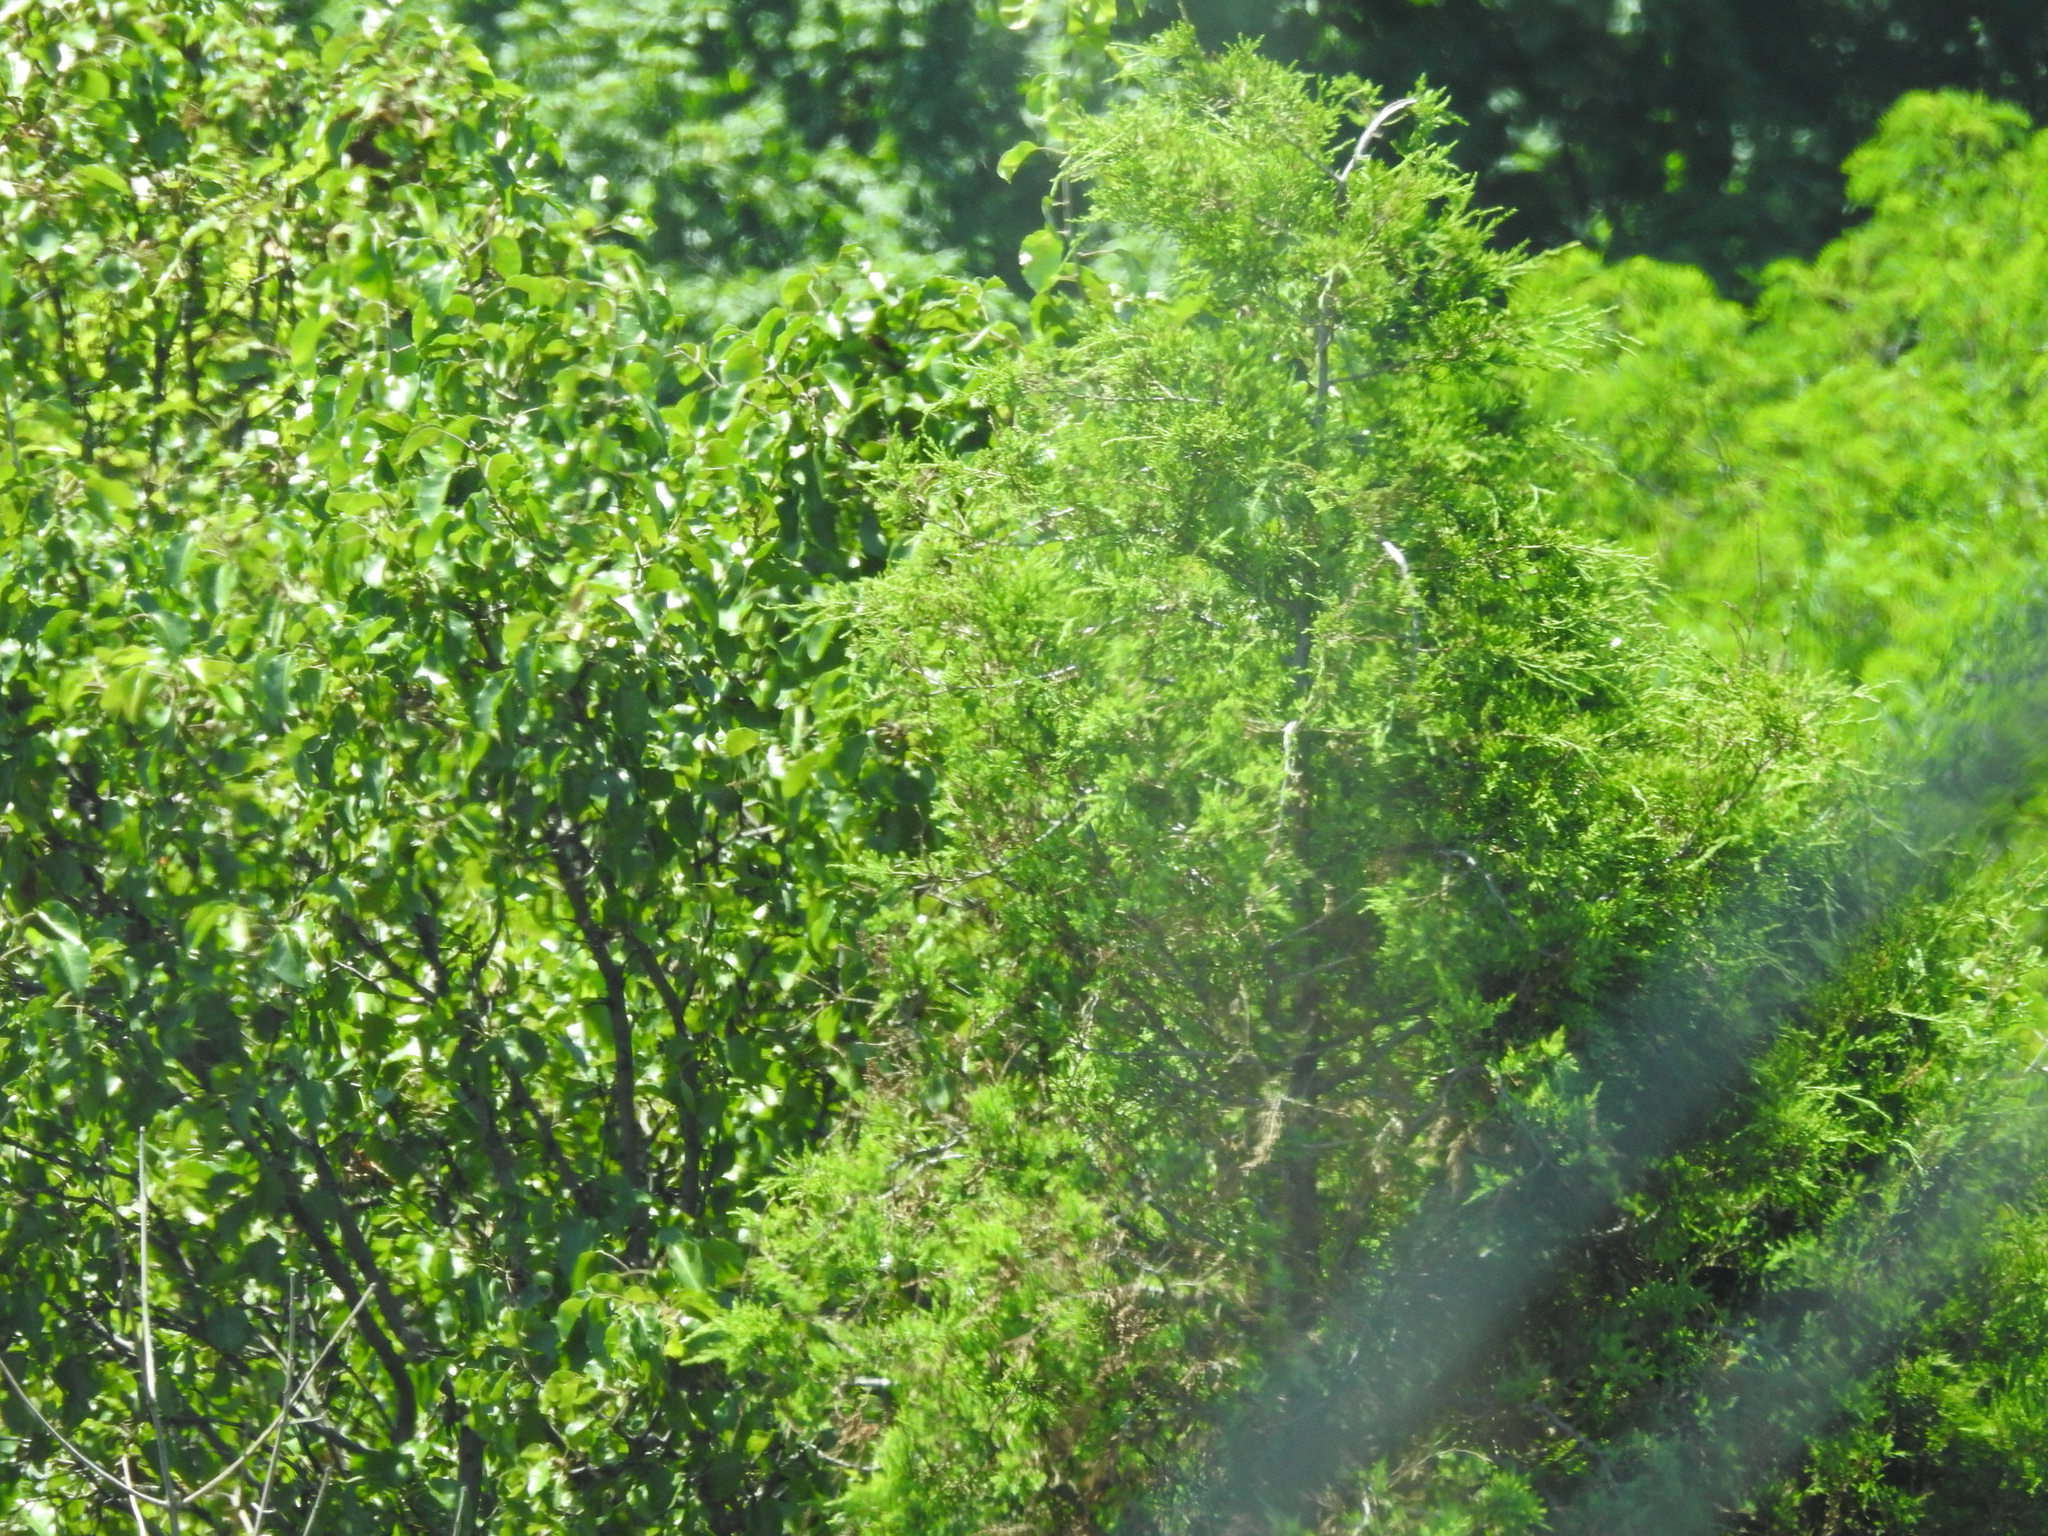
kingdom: Plantae
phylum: Tracheophyta
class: Pinopsida
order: Pinales
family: Cupressaceae
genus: Juniperus
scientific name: Juniperus virginiana
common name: Red juniper
